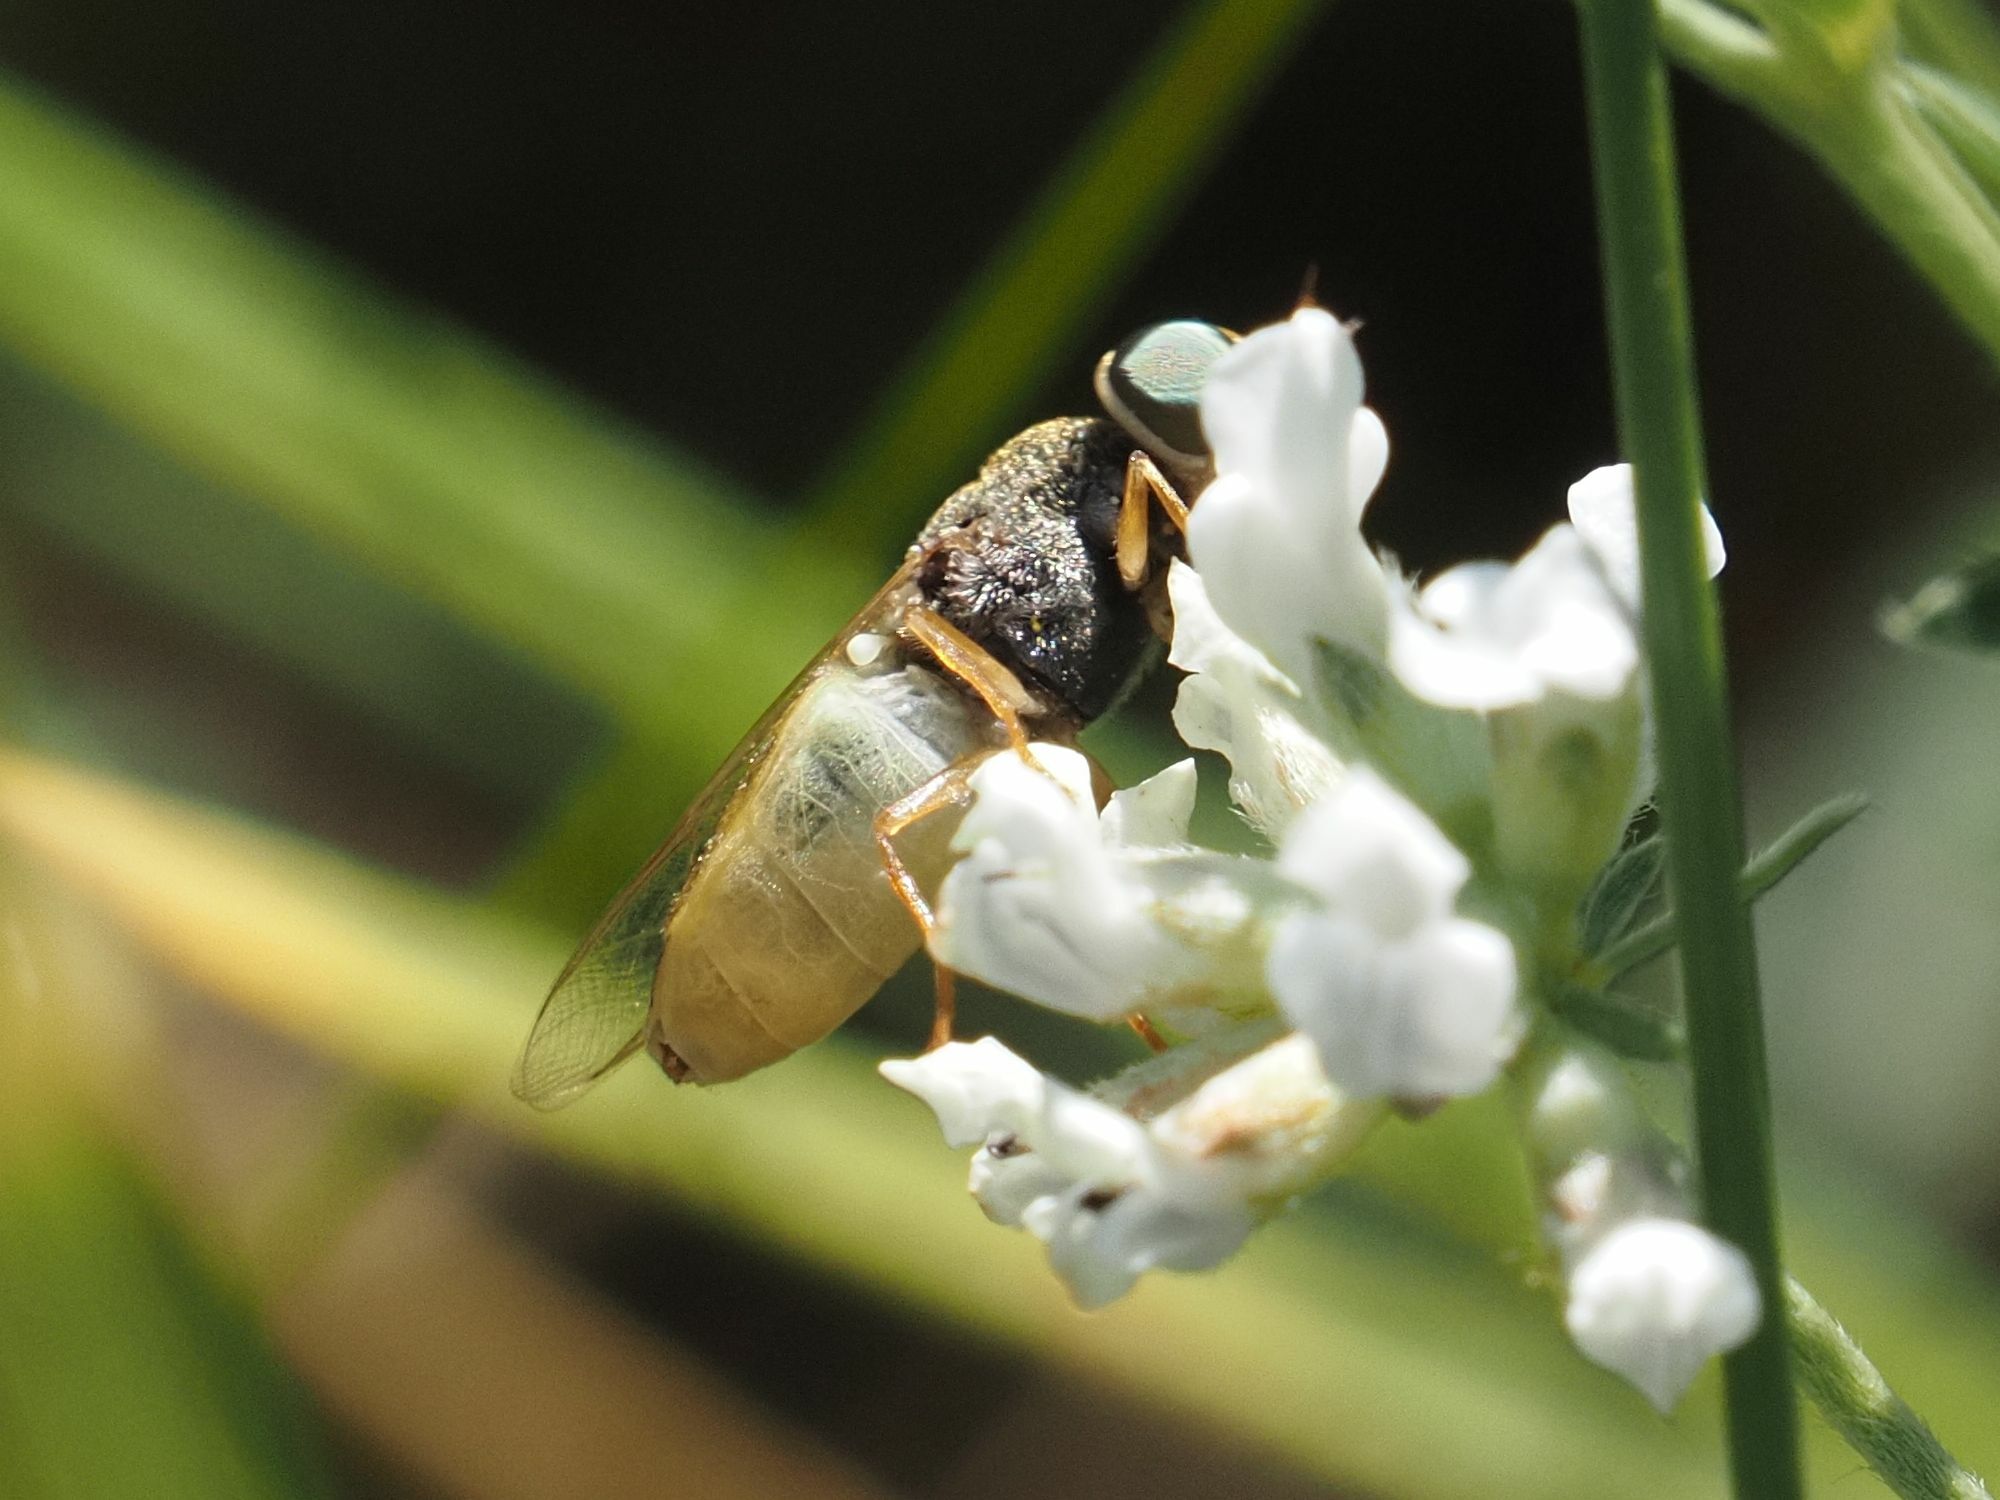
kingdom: Animalia
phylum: Arthropoda
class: Insecta
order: Diptera
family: Stratiomyidae
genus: Odontomyia
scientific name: Odontomyia angulata
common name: Orange-horned green colonel
